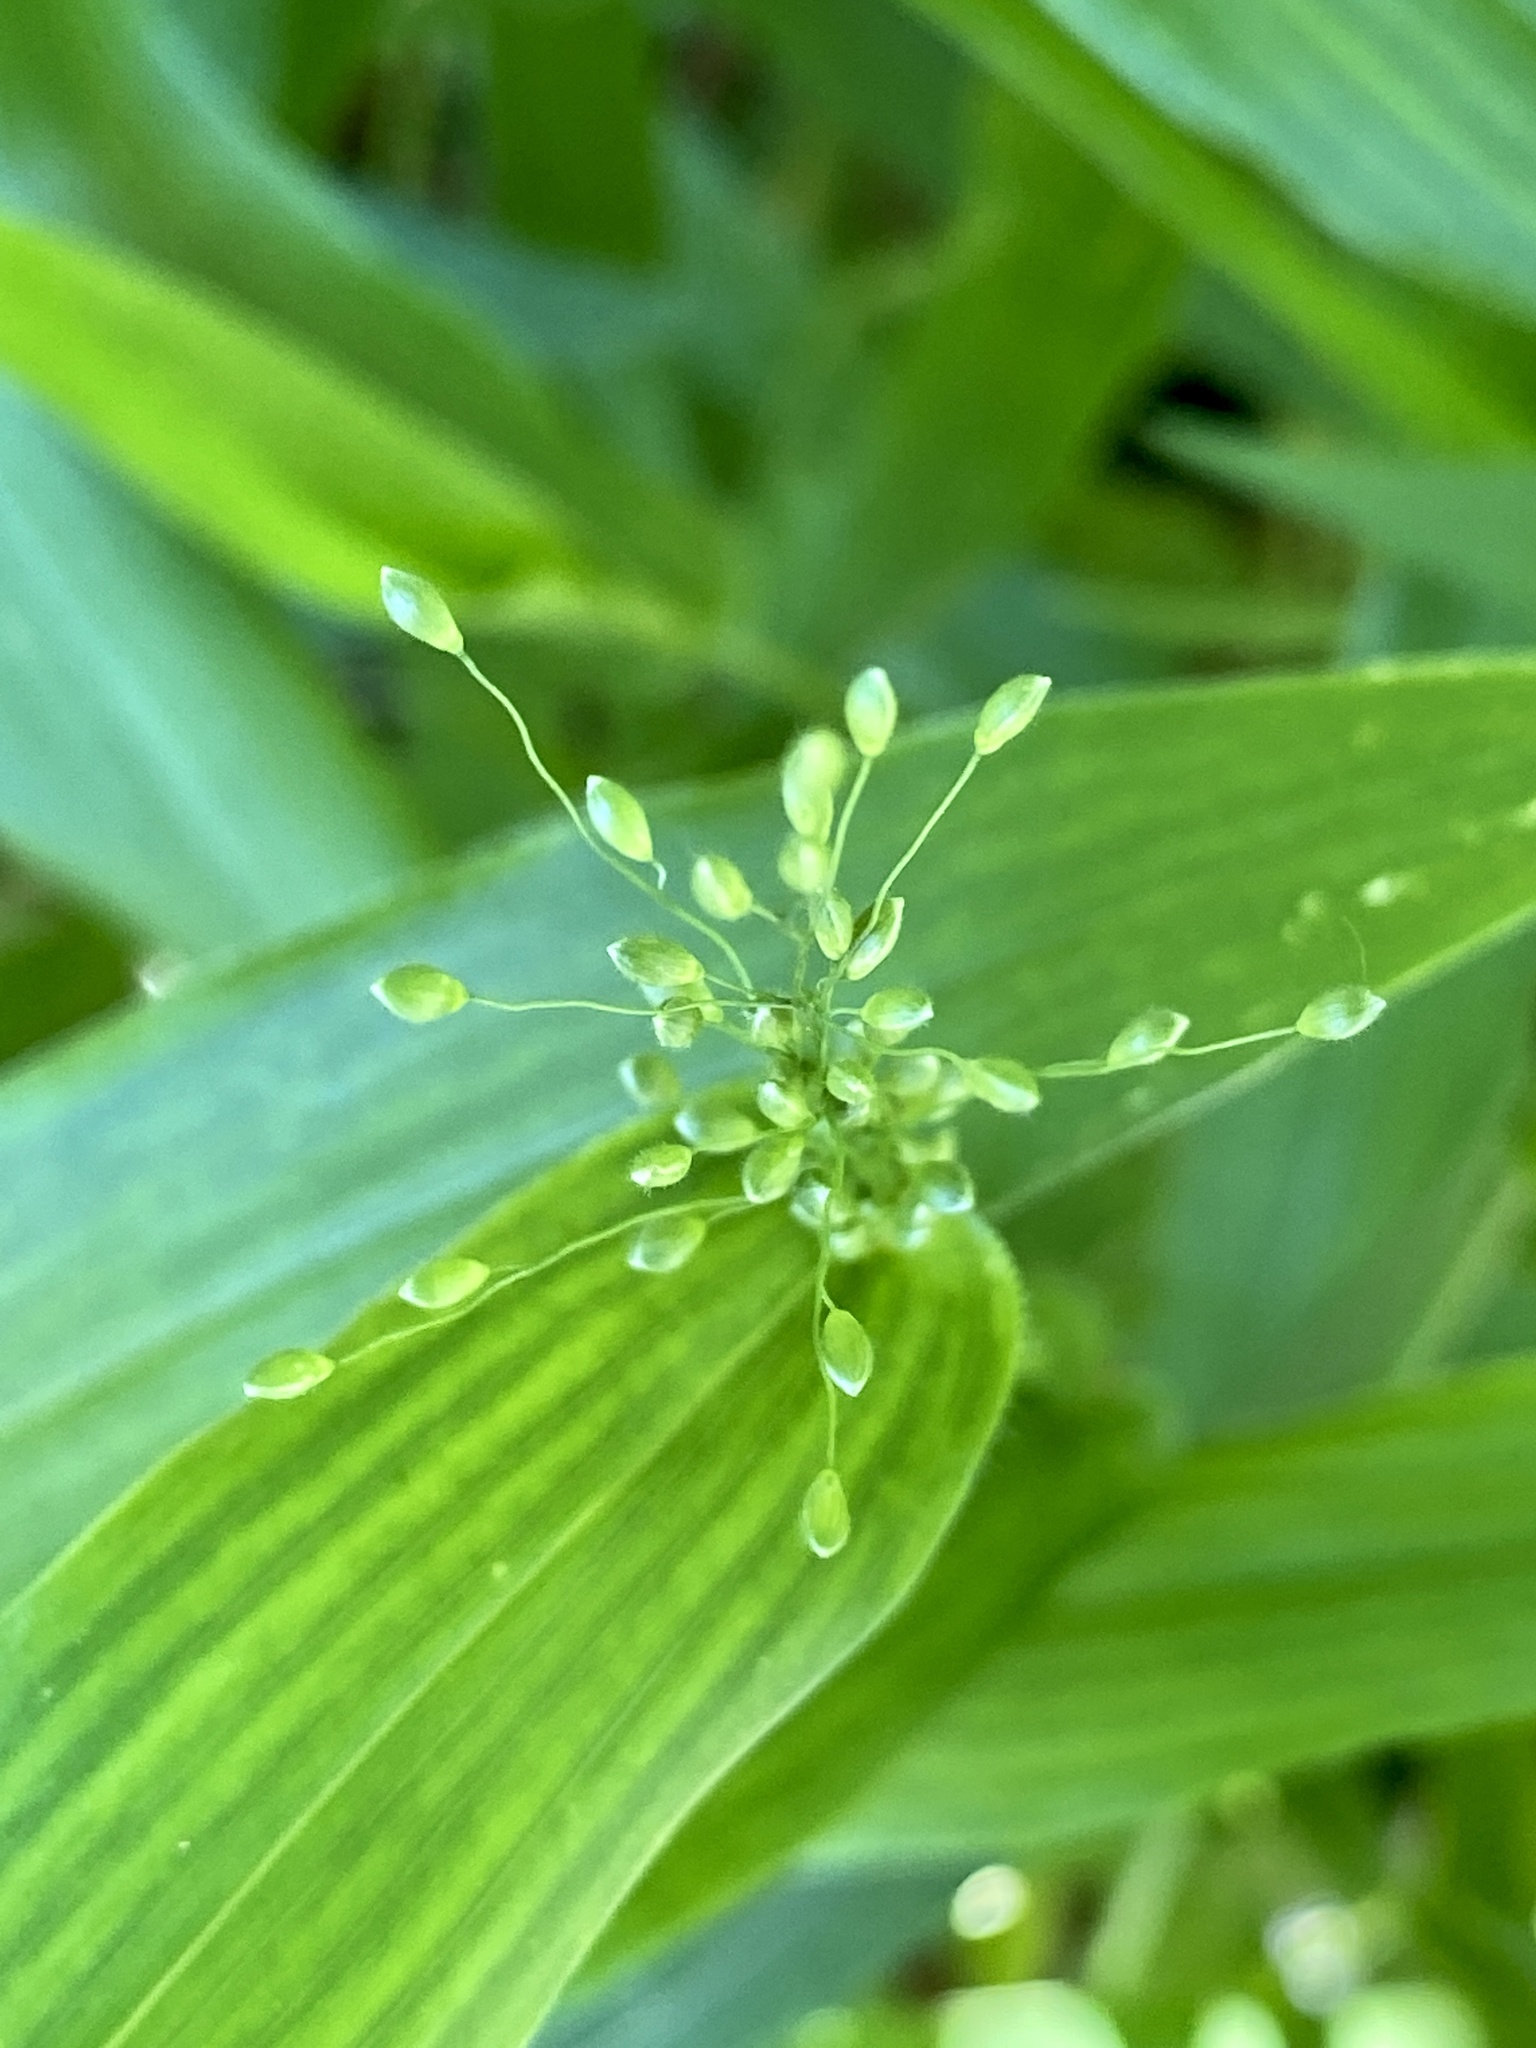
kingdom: Plantae
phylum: Tracheophyta
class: Liliopsida
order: Poales
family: Poaceae
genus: Dichanthelium
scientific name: Dichanthelium clandestinum
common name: Deer-tongue grass
